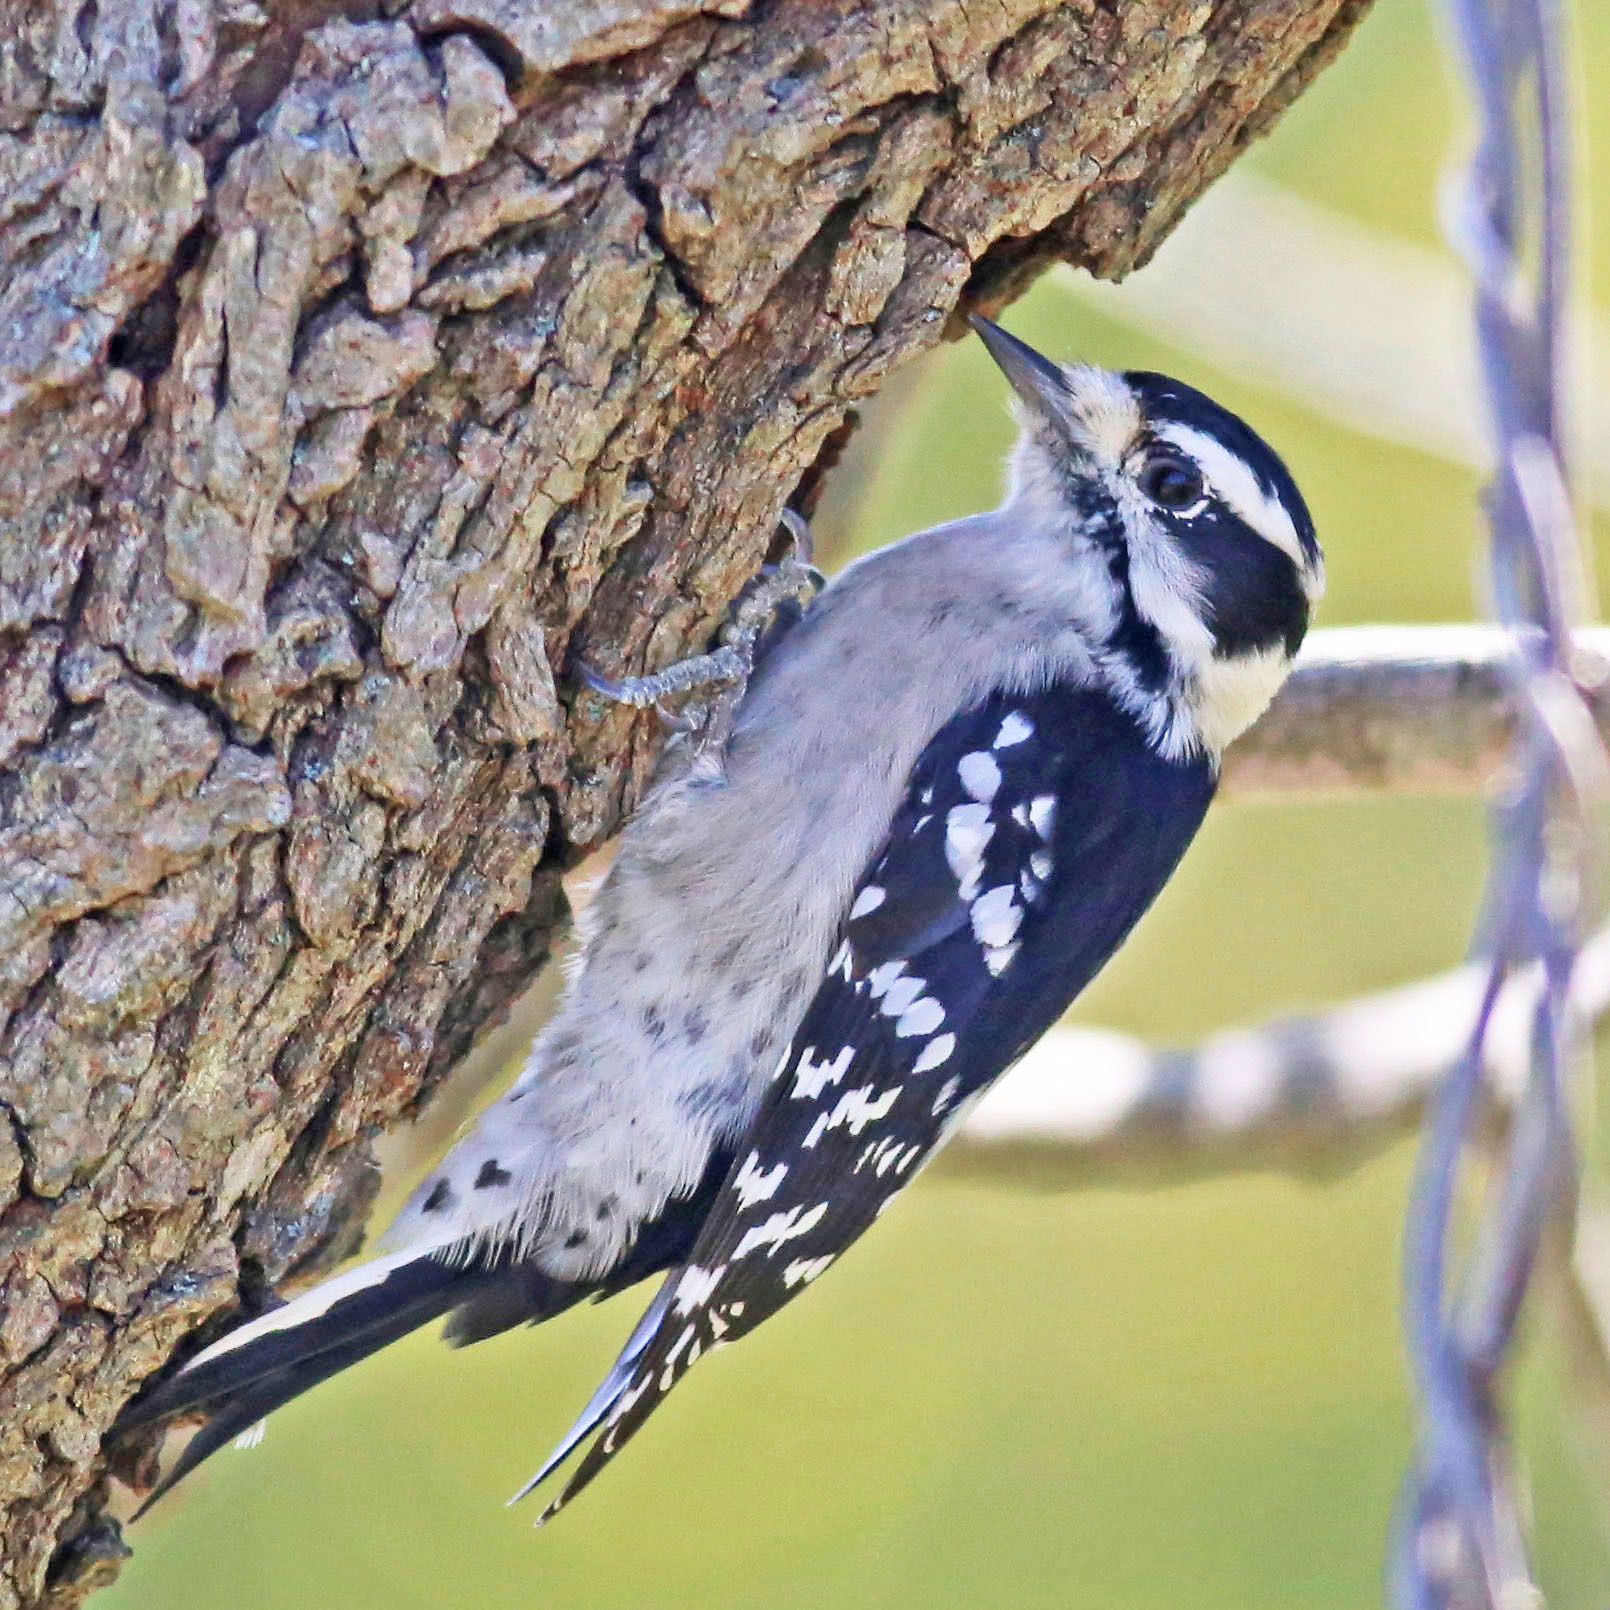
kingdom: Animalia
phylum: Chordata
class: Aves
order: Piciformes
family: Picidae
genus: Dryobates
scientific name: Dryobates pubescens
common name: Downy woodpecker
